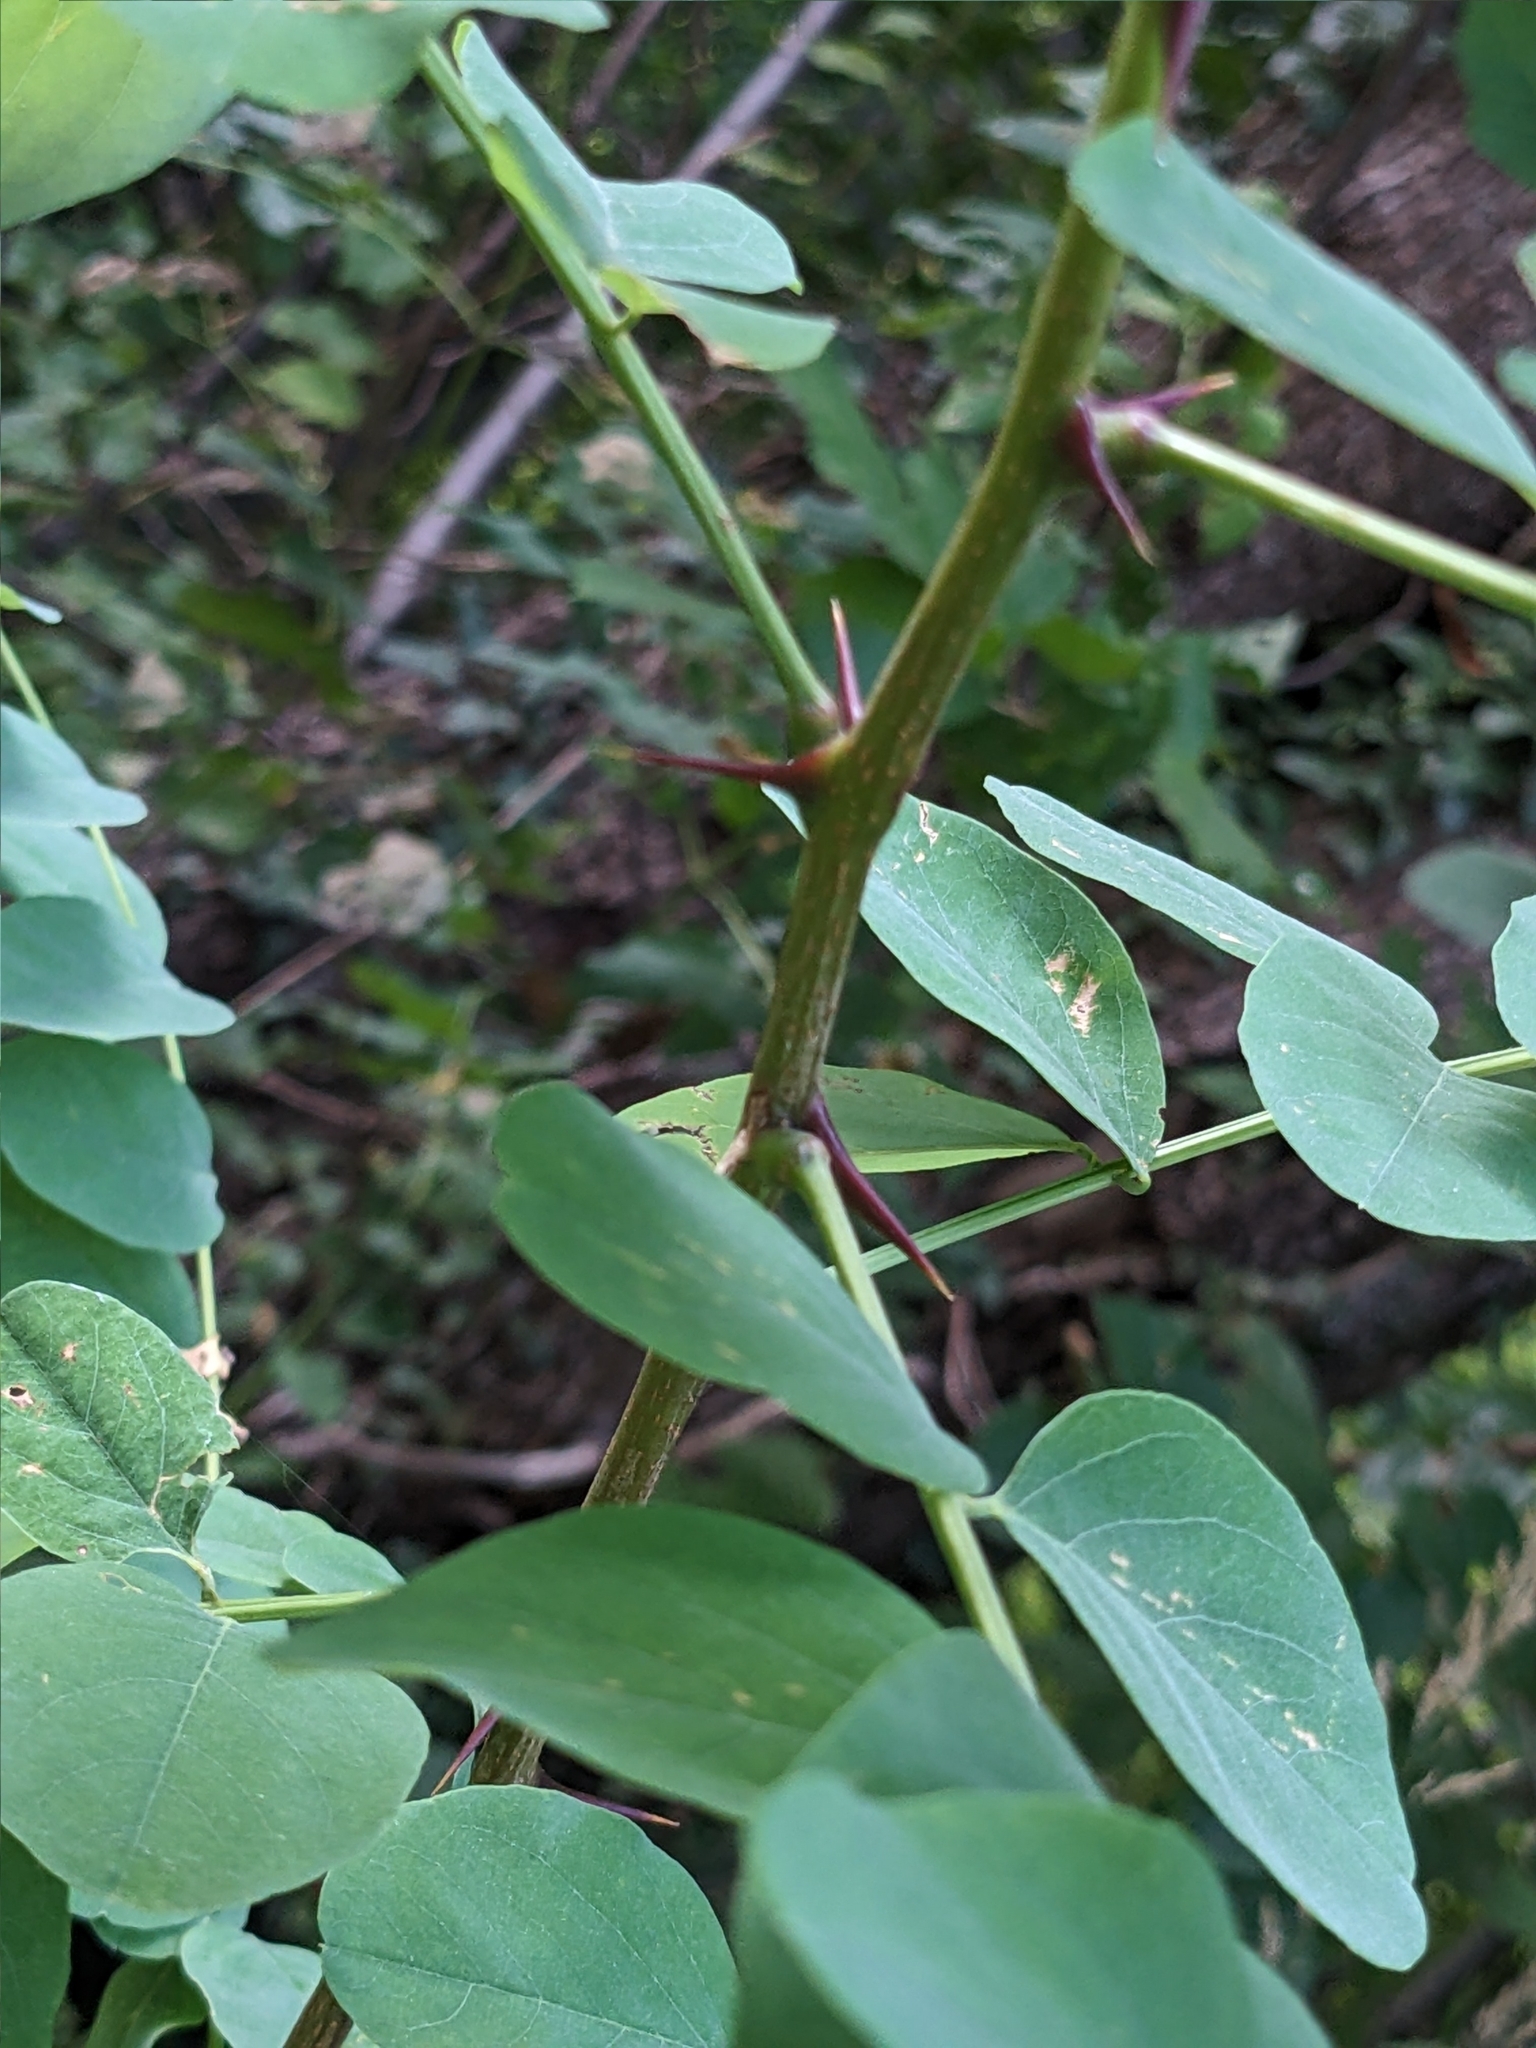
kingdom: Plantae
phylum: Tracheophyta
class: Magnoliopsida
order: Fabales
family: Fabaceae
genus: Robinia
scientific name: Robinia pseudoacacia
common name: Black locust
